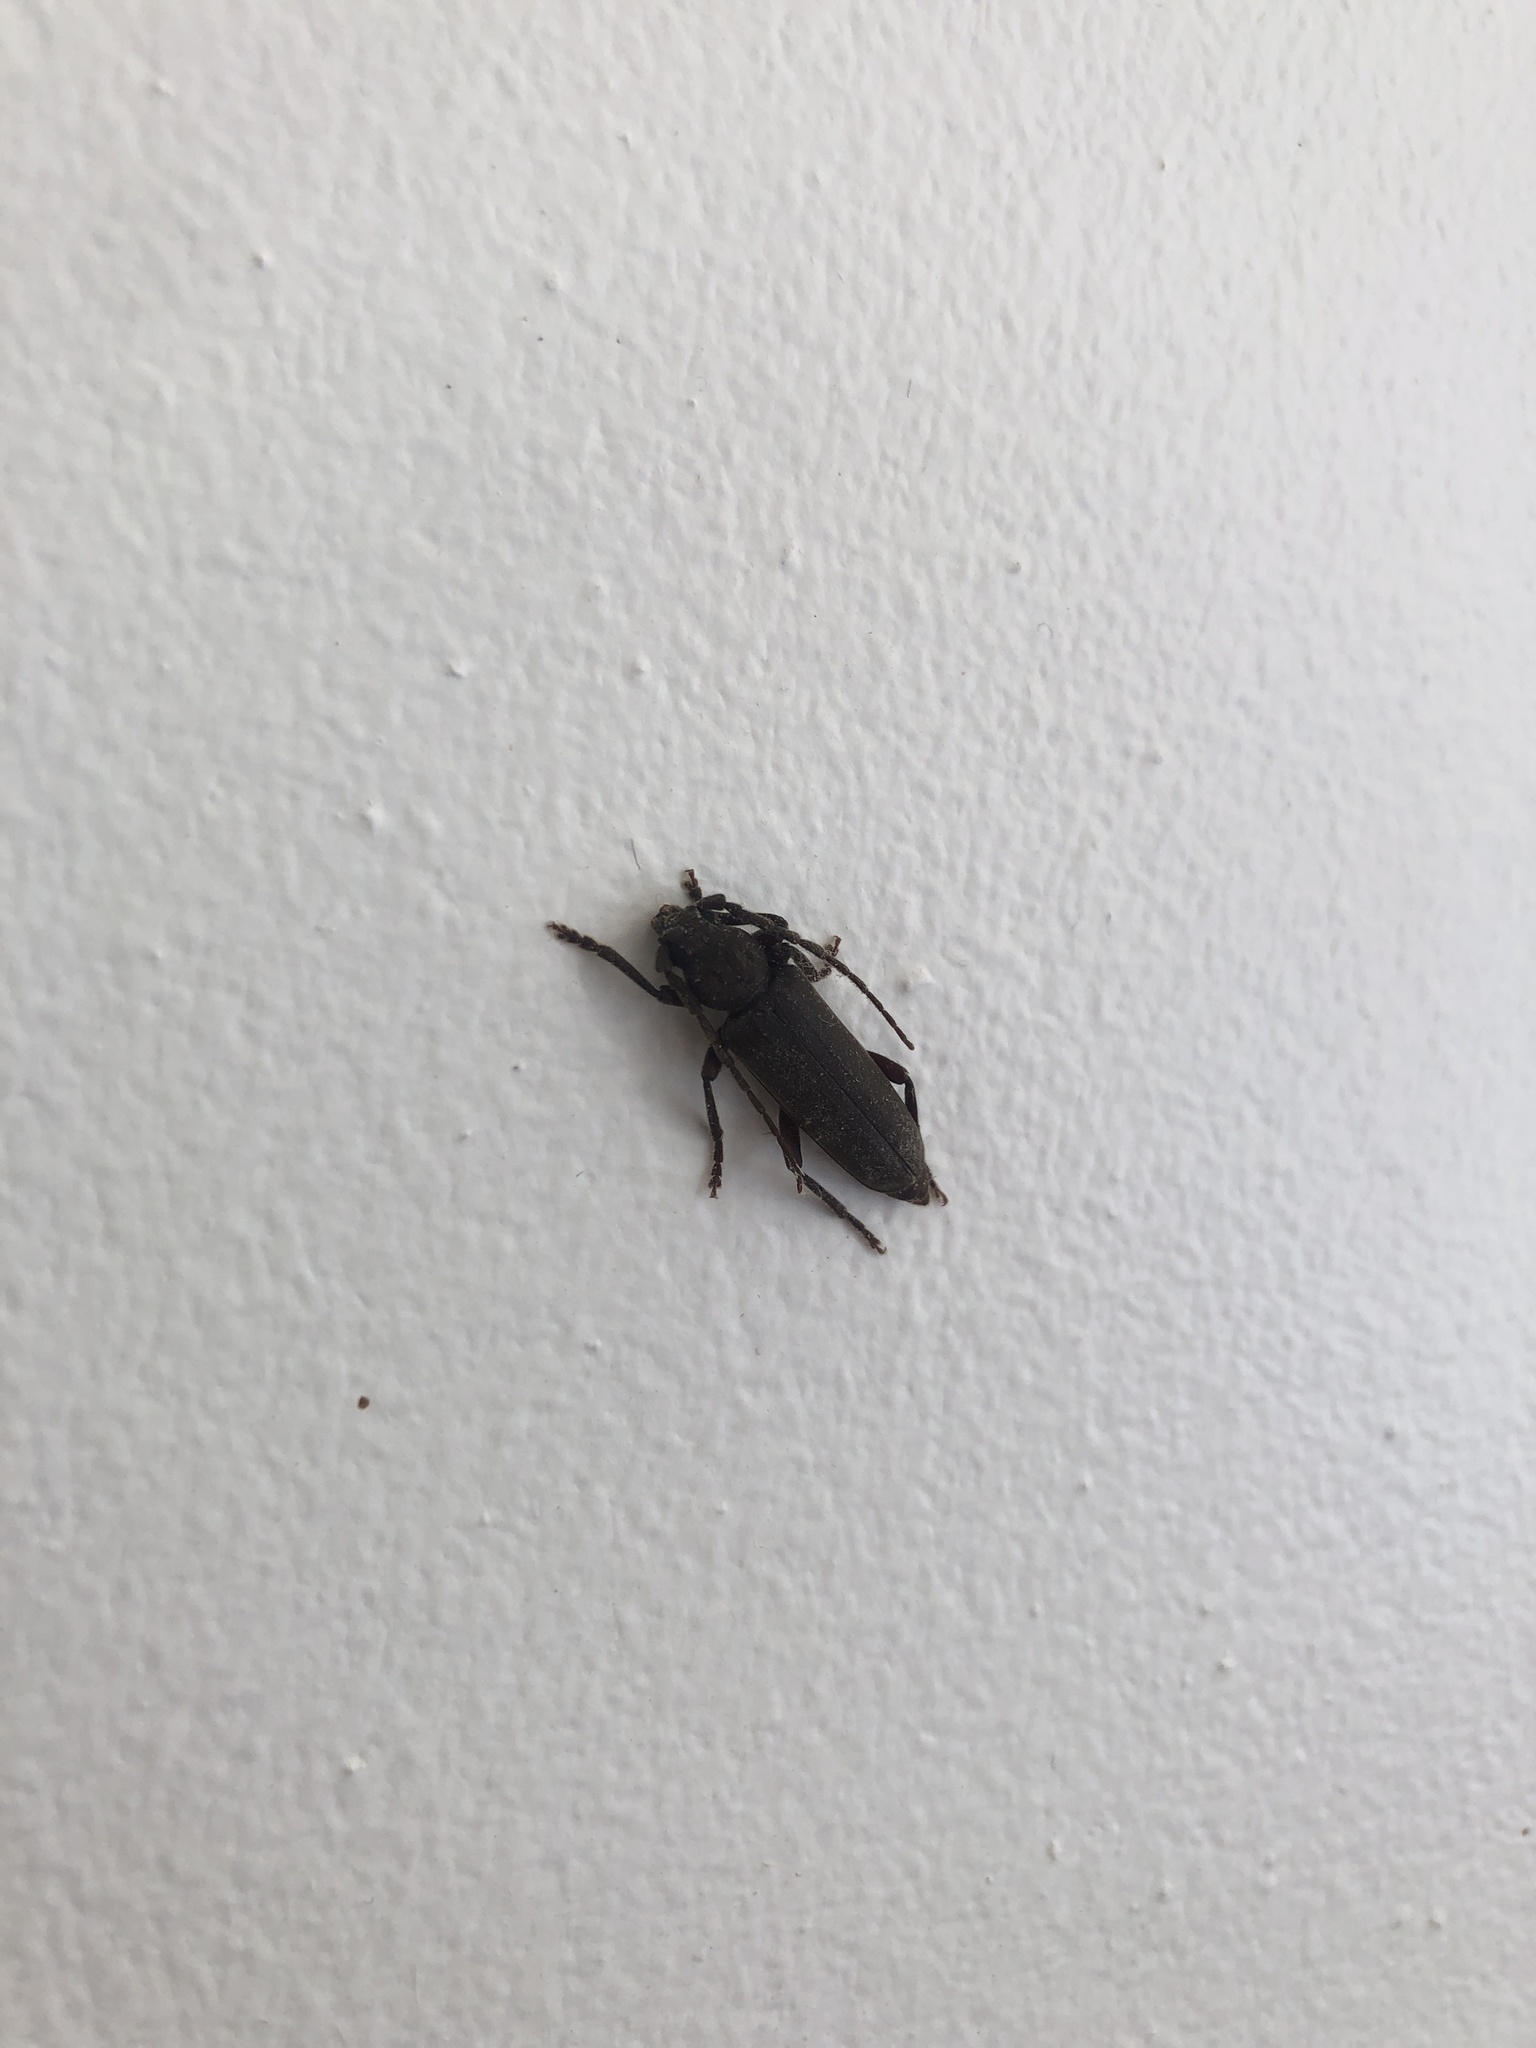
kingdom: Animalia
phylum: Arthropoda
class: Insecta
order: Coleoptera
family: Cerambycidae
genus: Arhopalus
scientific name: Arhopalus rusticus
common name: Rust pine borer
